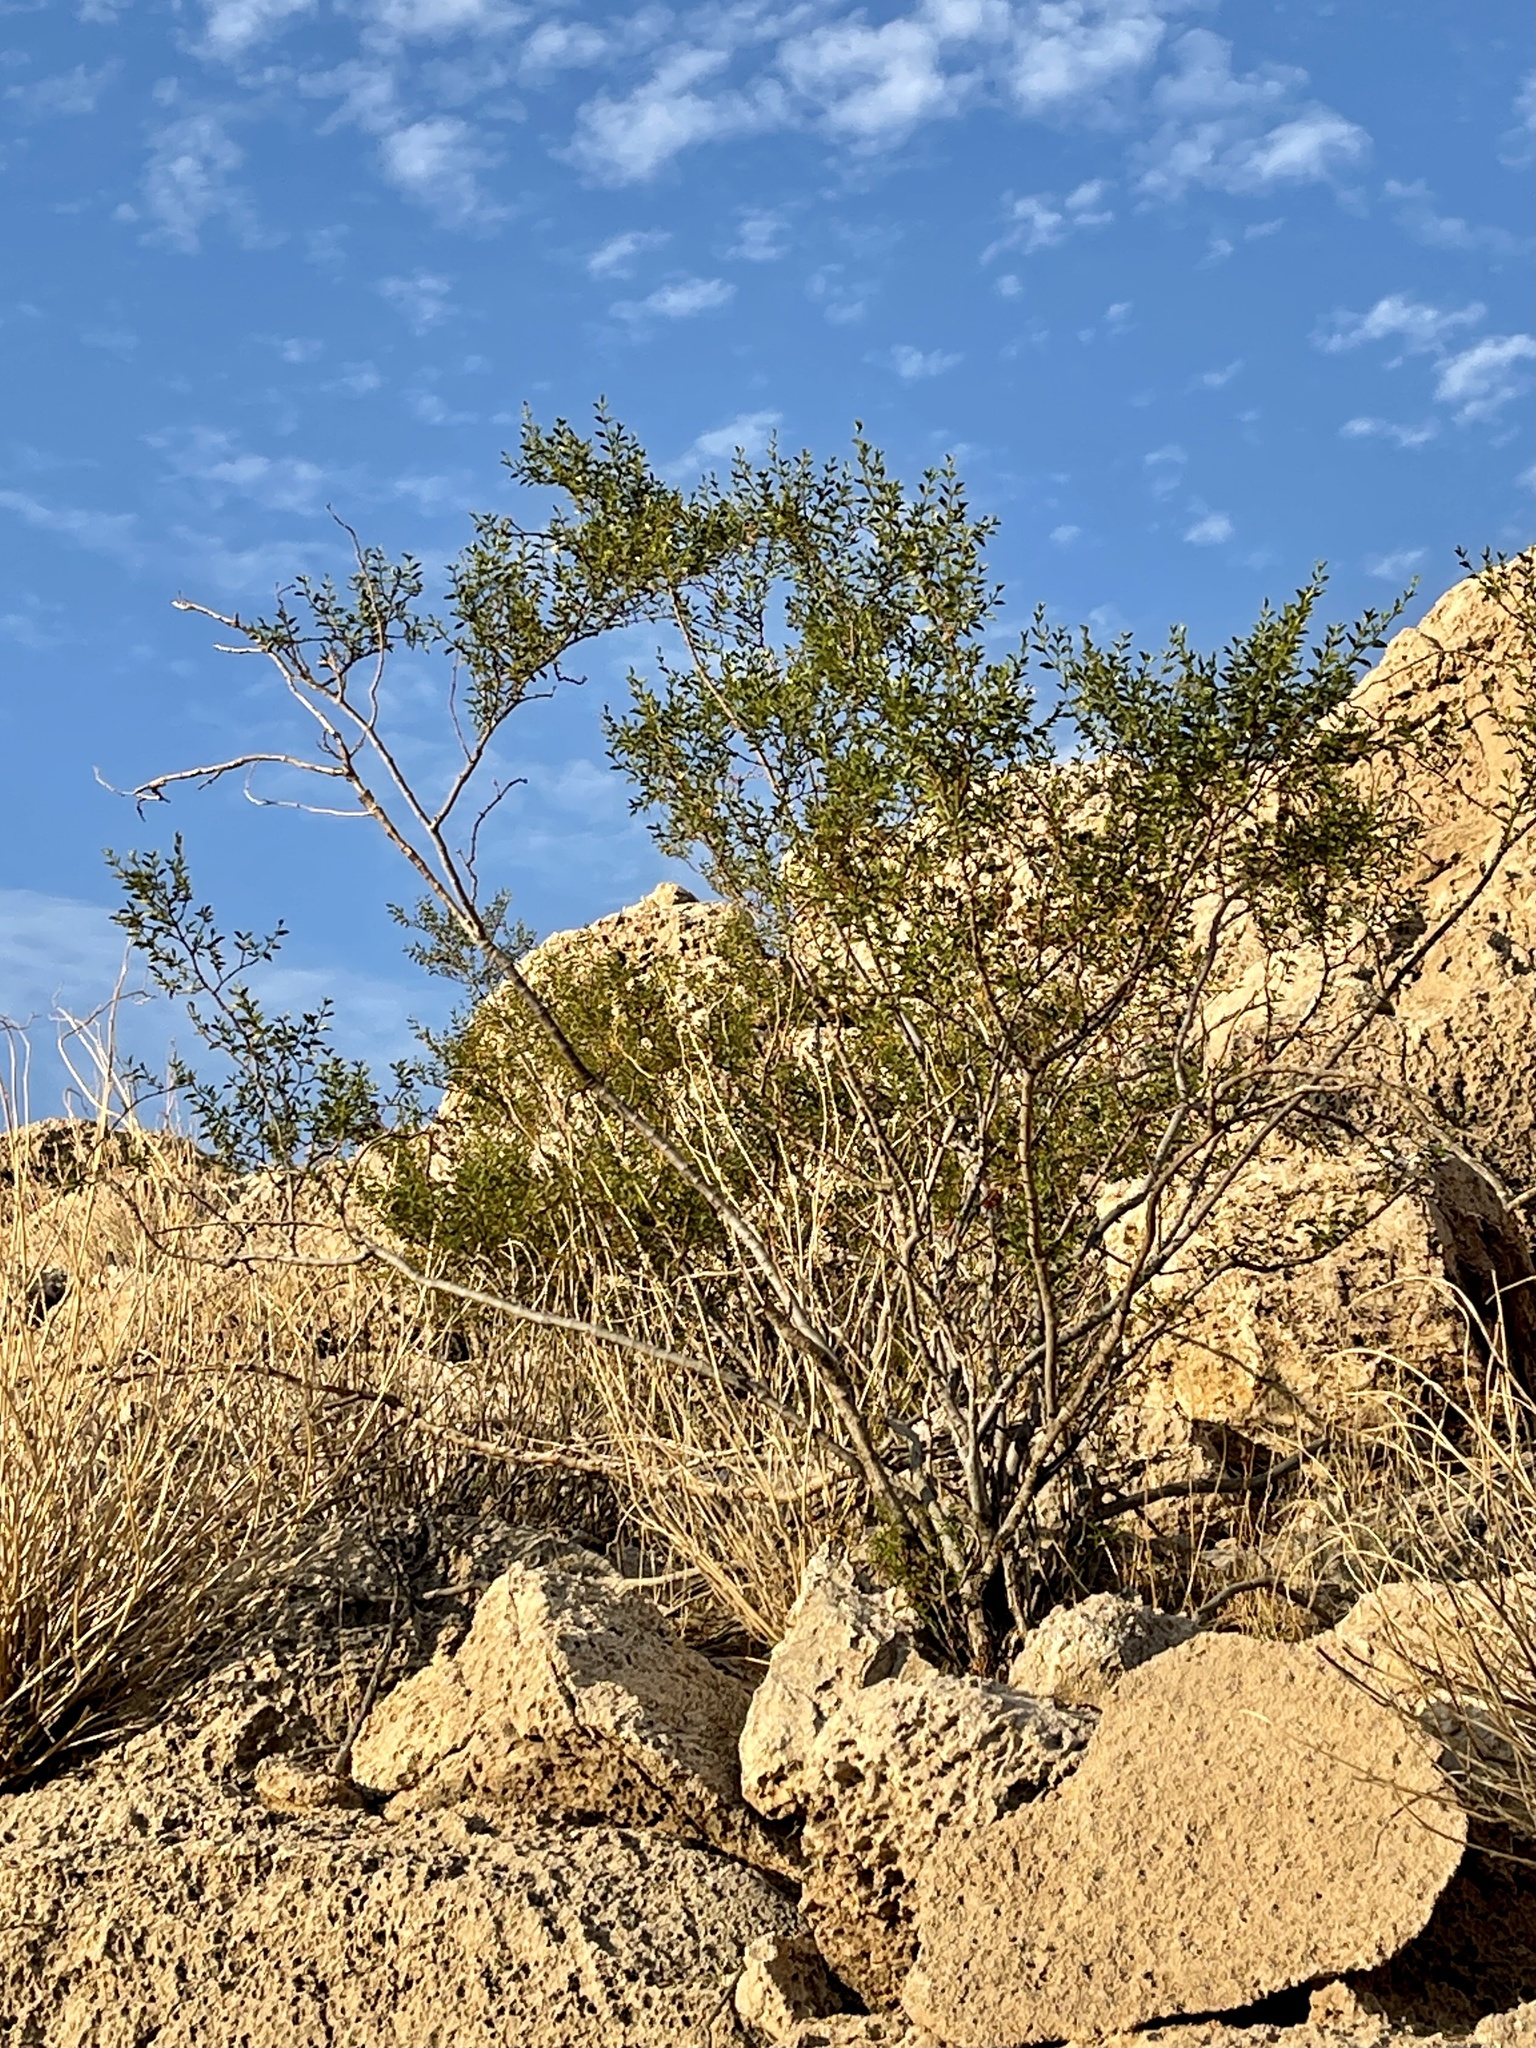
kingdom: Plantae
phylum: Tracheophyta
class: Magnoliopsida
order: Zygophyllales
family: Zygophyllaceae
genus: Larrea
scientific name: Larrea tridentata
